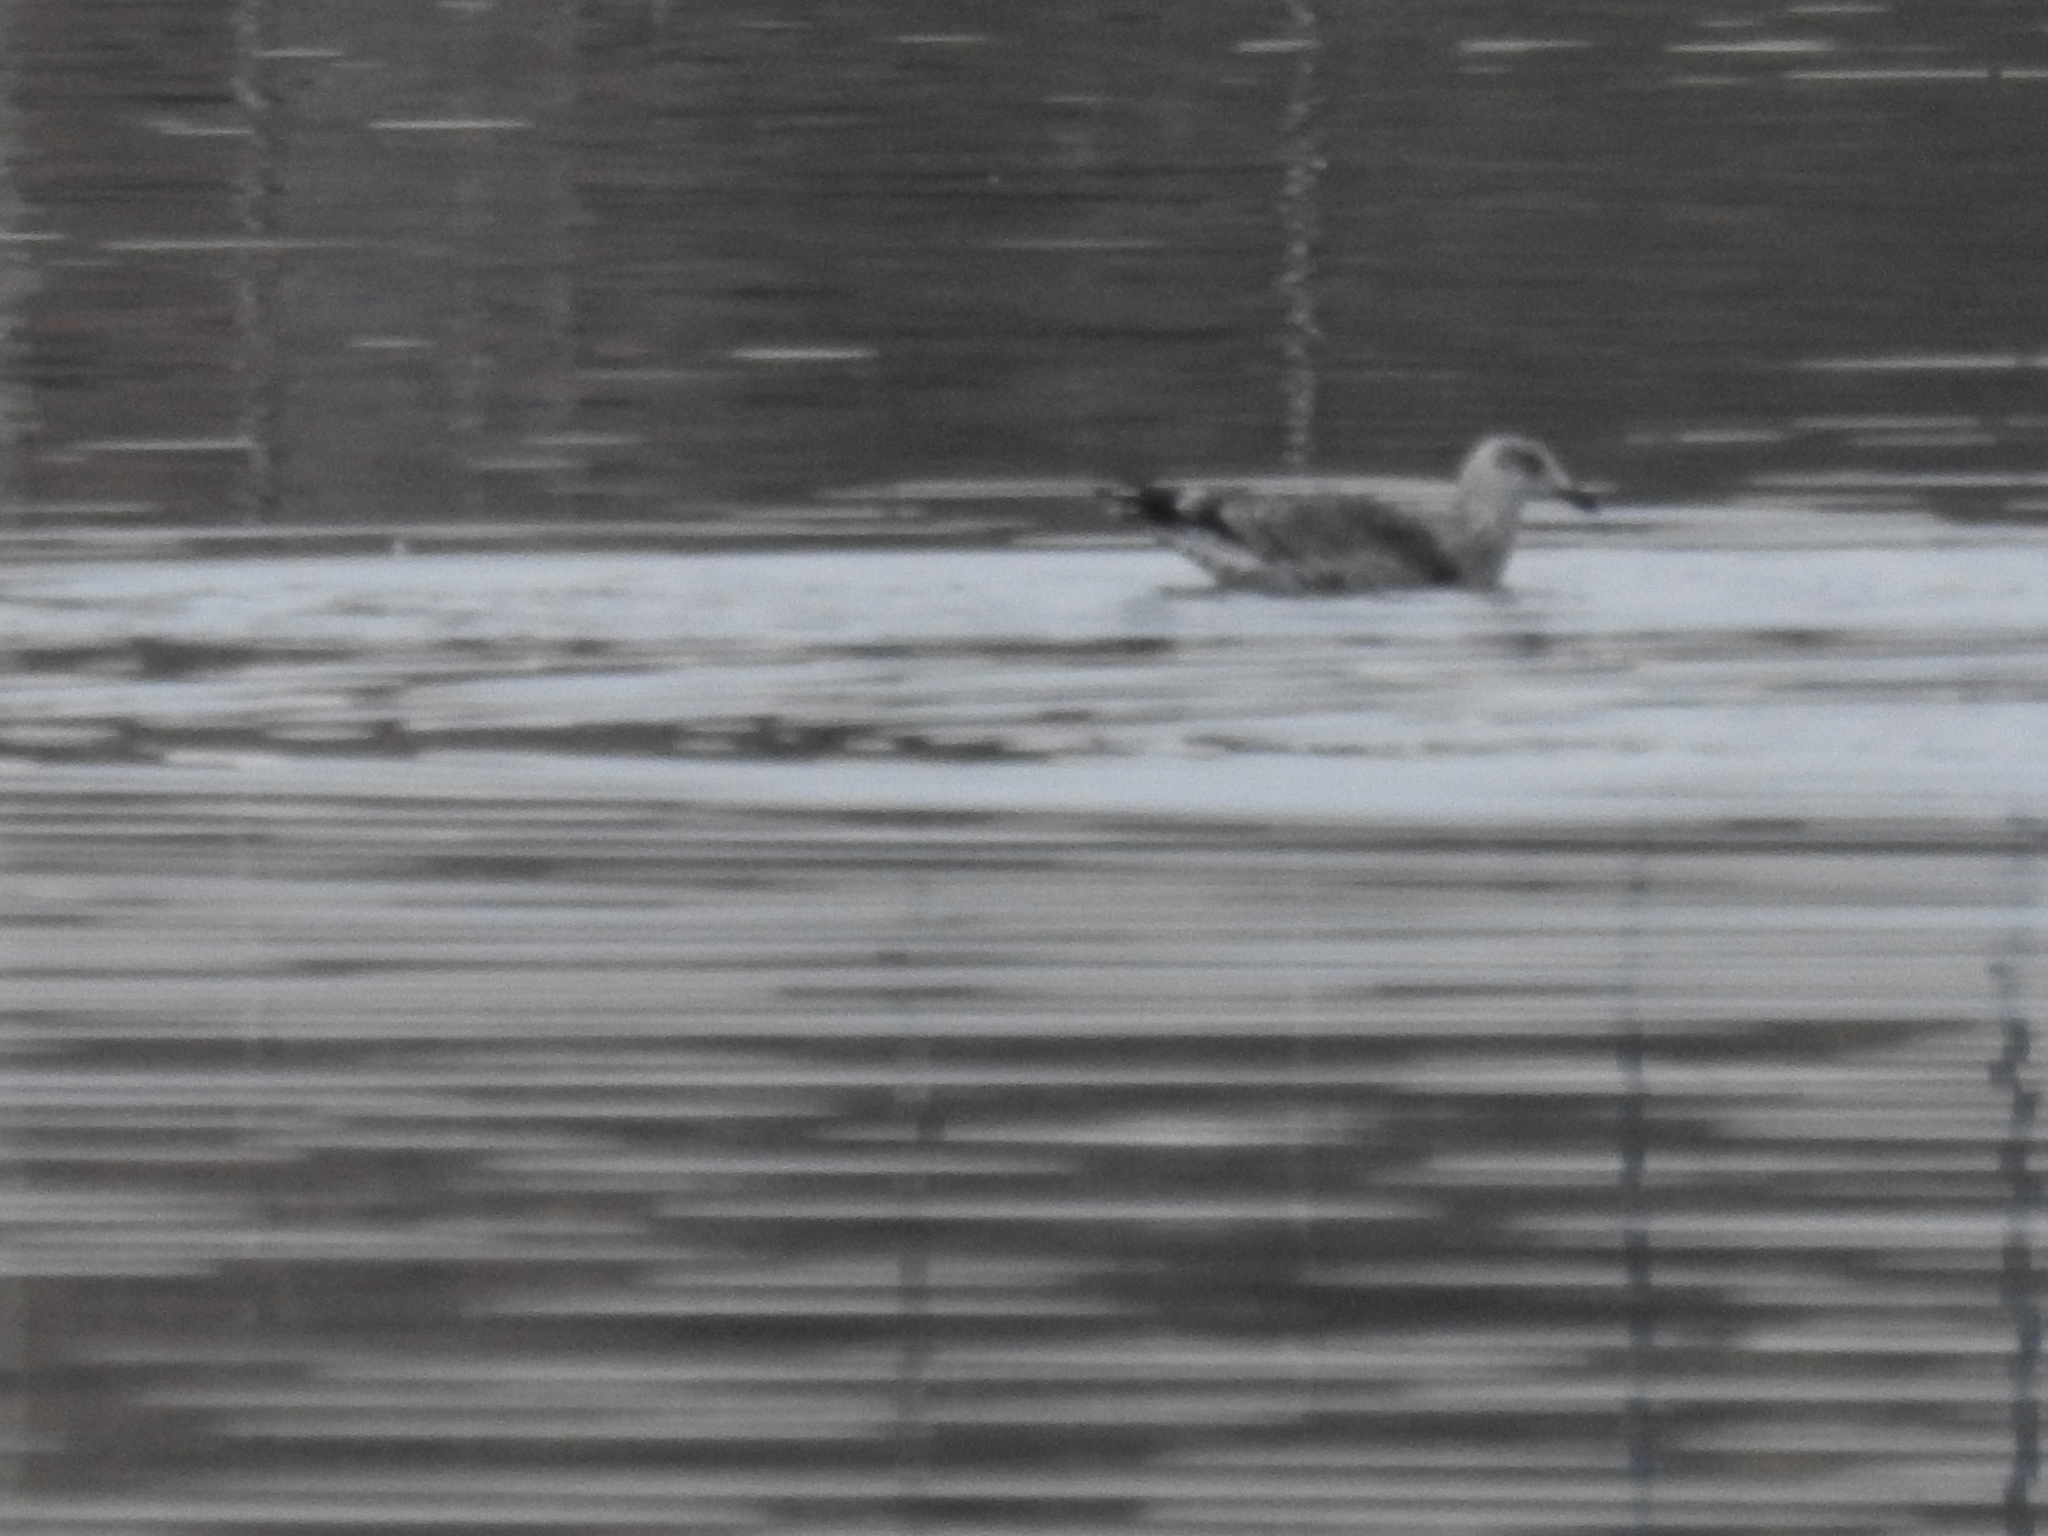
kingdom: Animalia
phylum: Chordata
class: Aves
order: Charadriiformes
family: Laridae
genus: Larus
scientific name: Larus dominicanus
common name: Kelp gull
